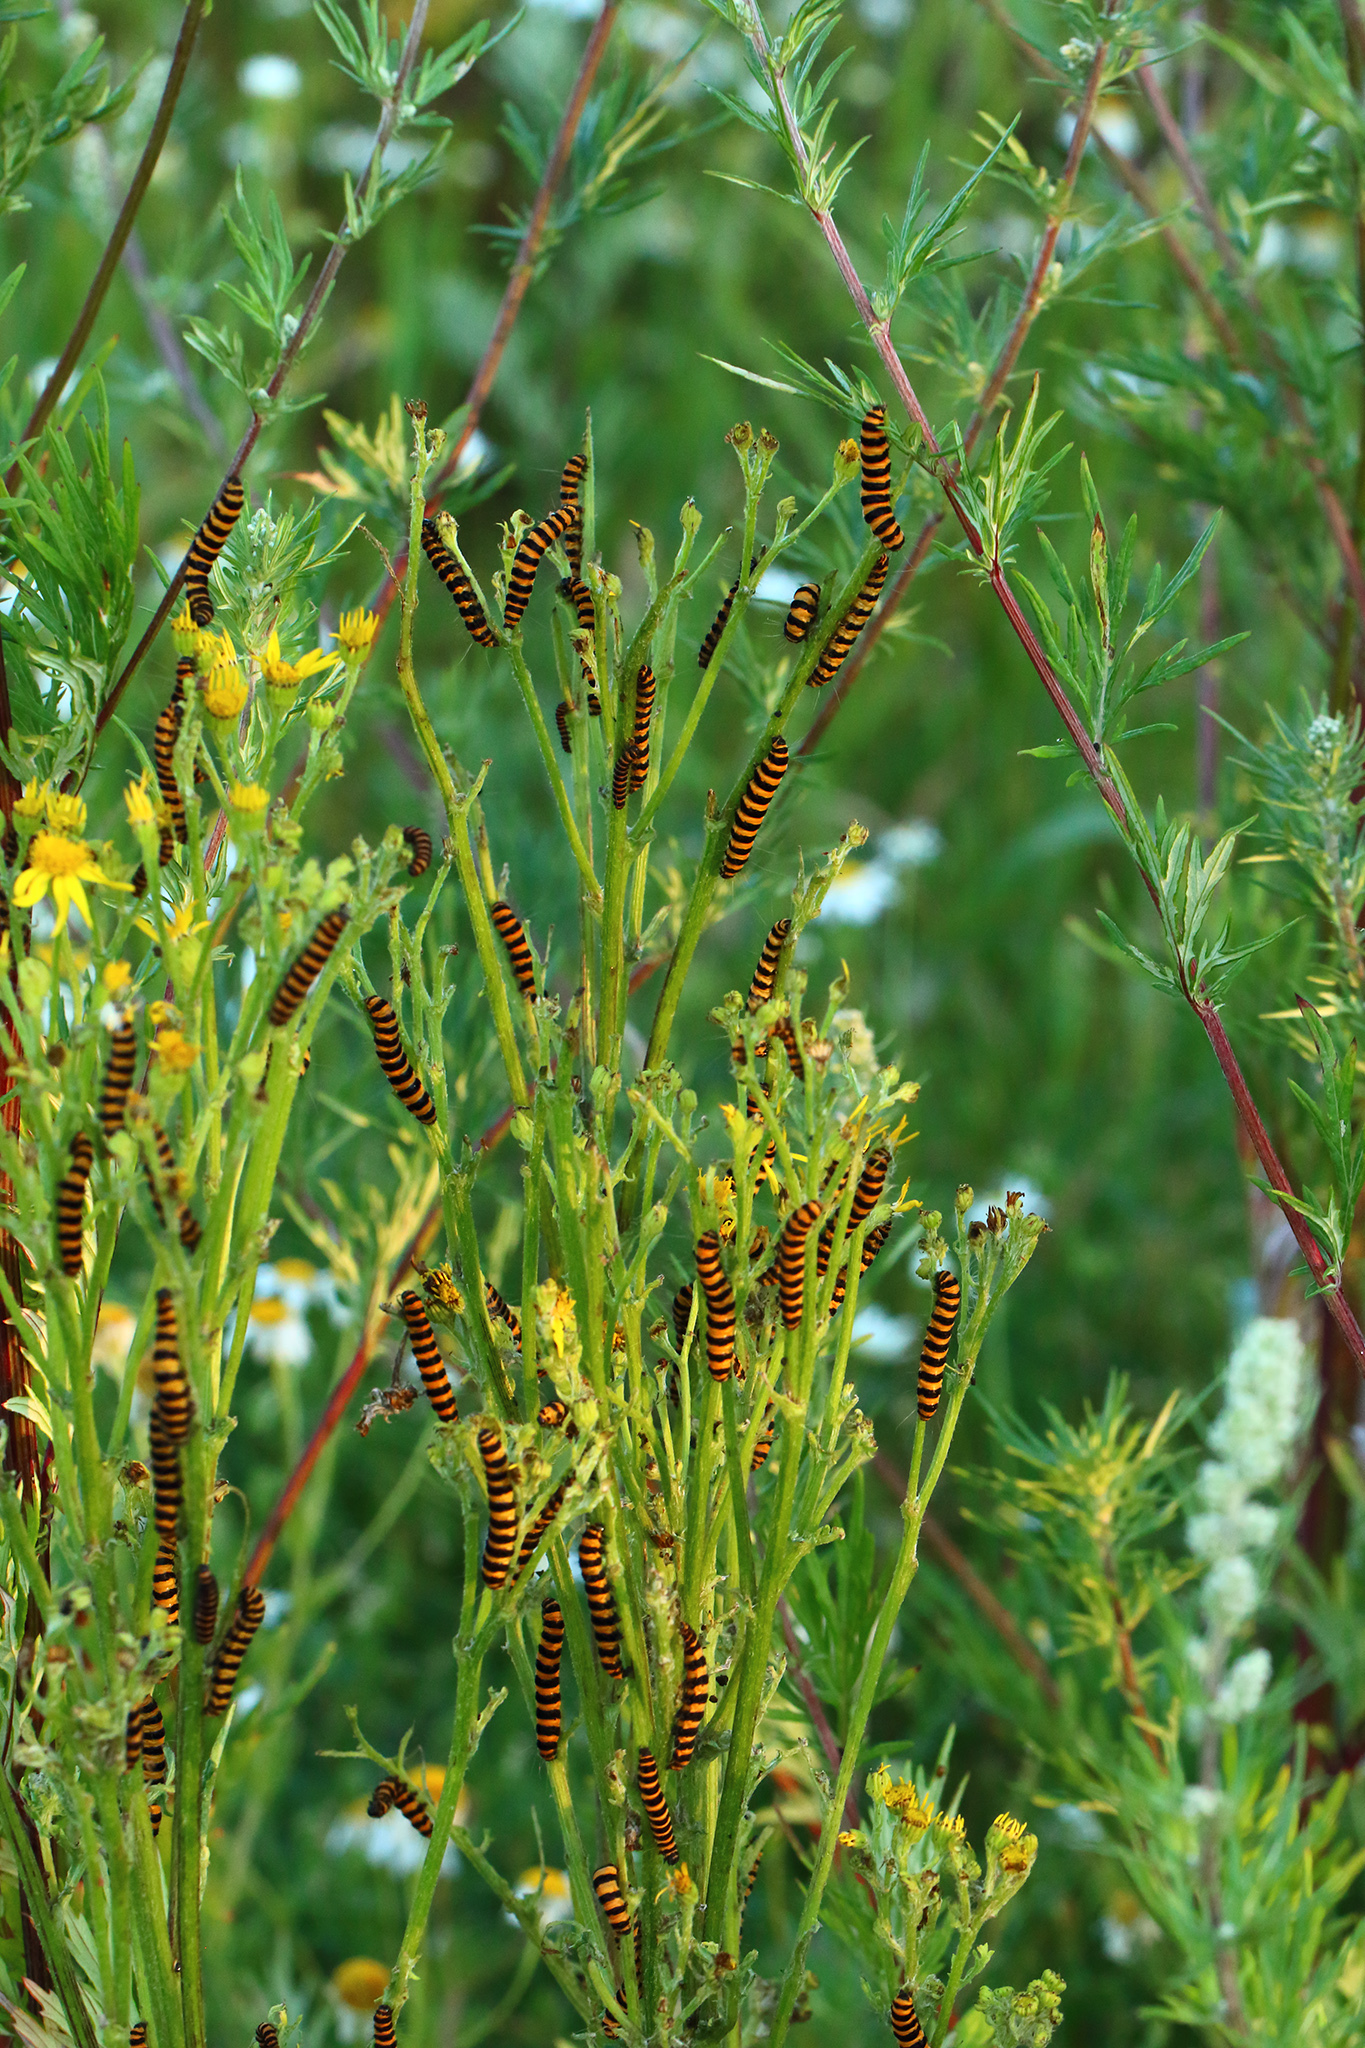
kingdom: Animalia
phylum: Arthropoda
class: Insecta
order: Lepidoptera
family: Erebidae
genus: Tyria
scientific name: Tyria jacobaeae
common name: Cinnabar
